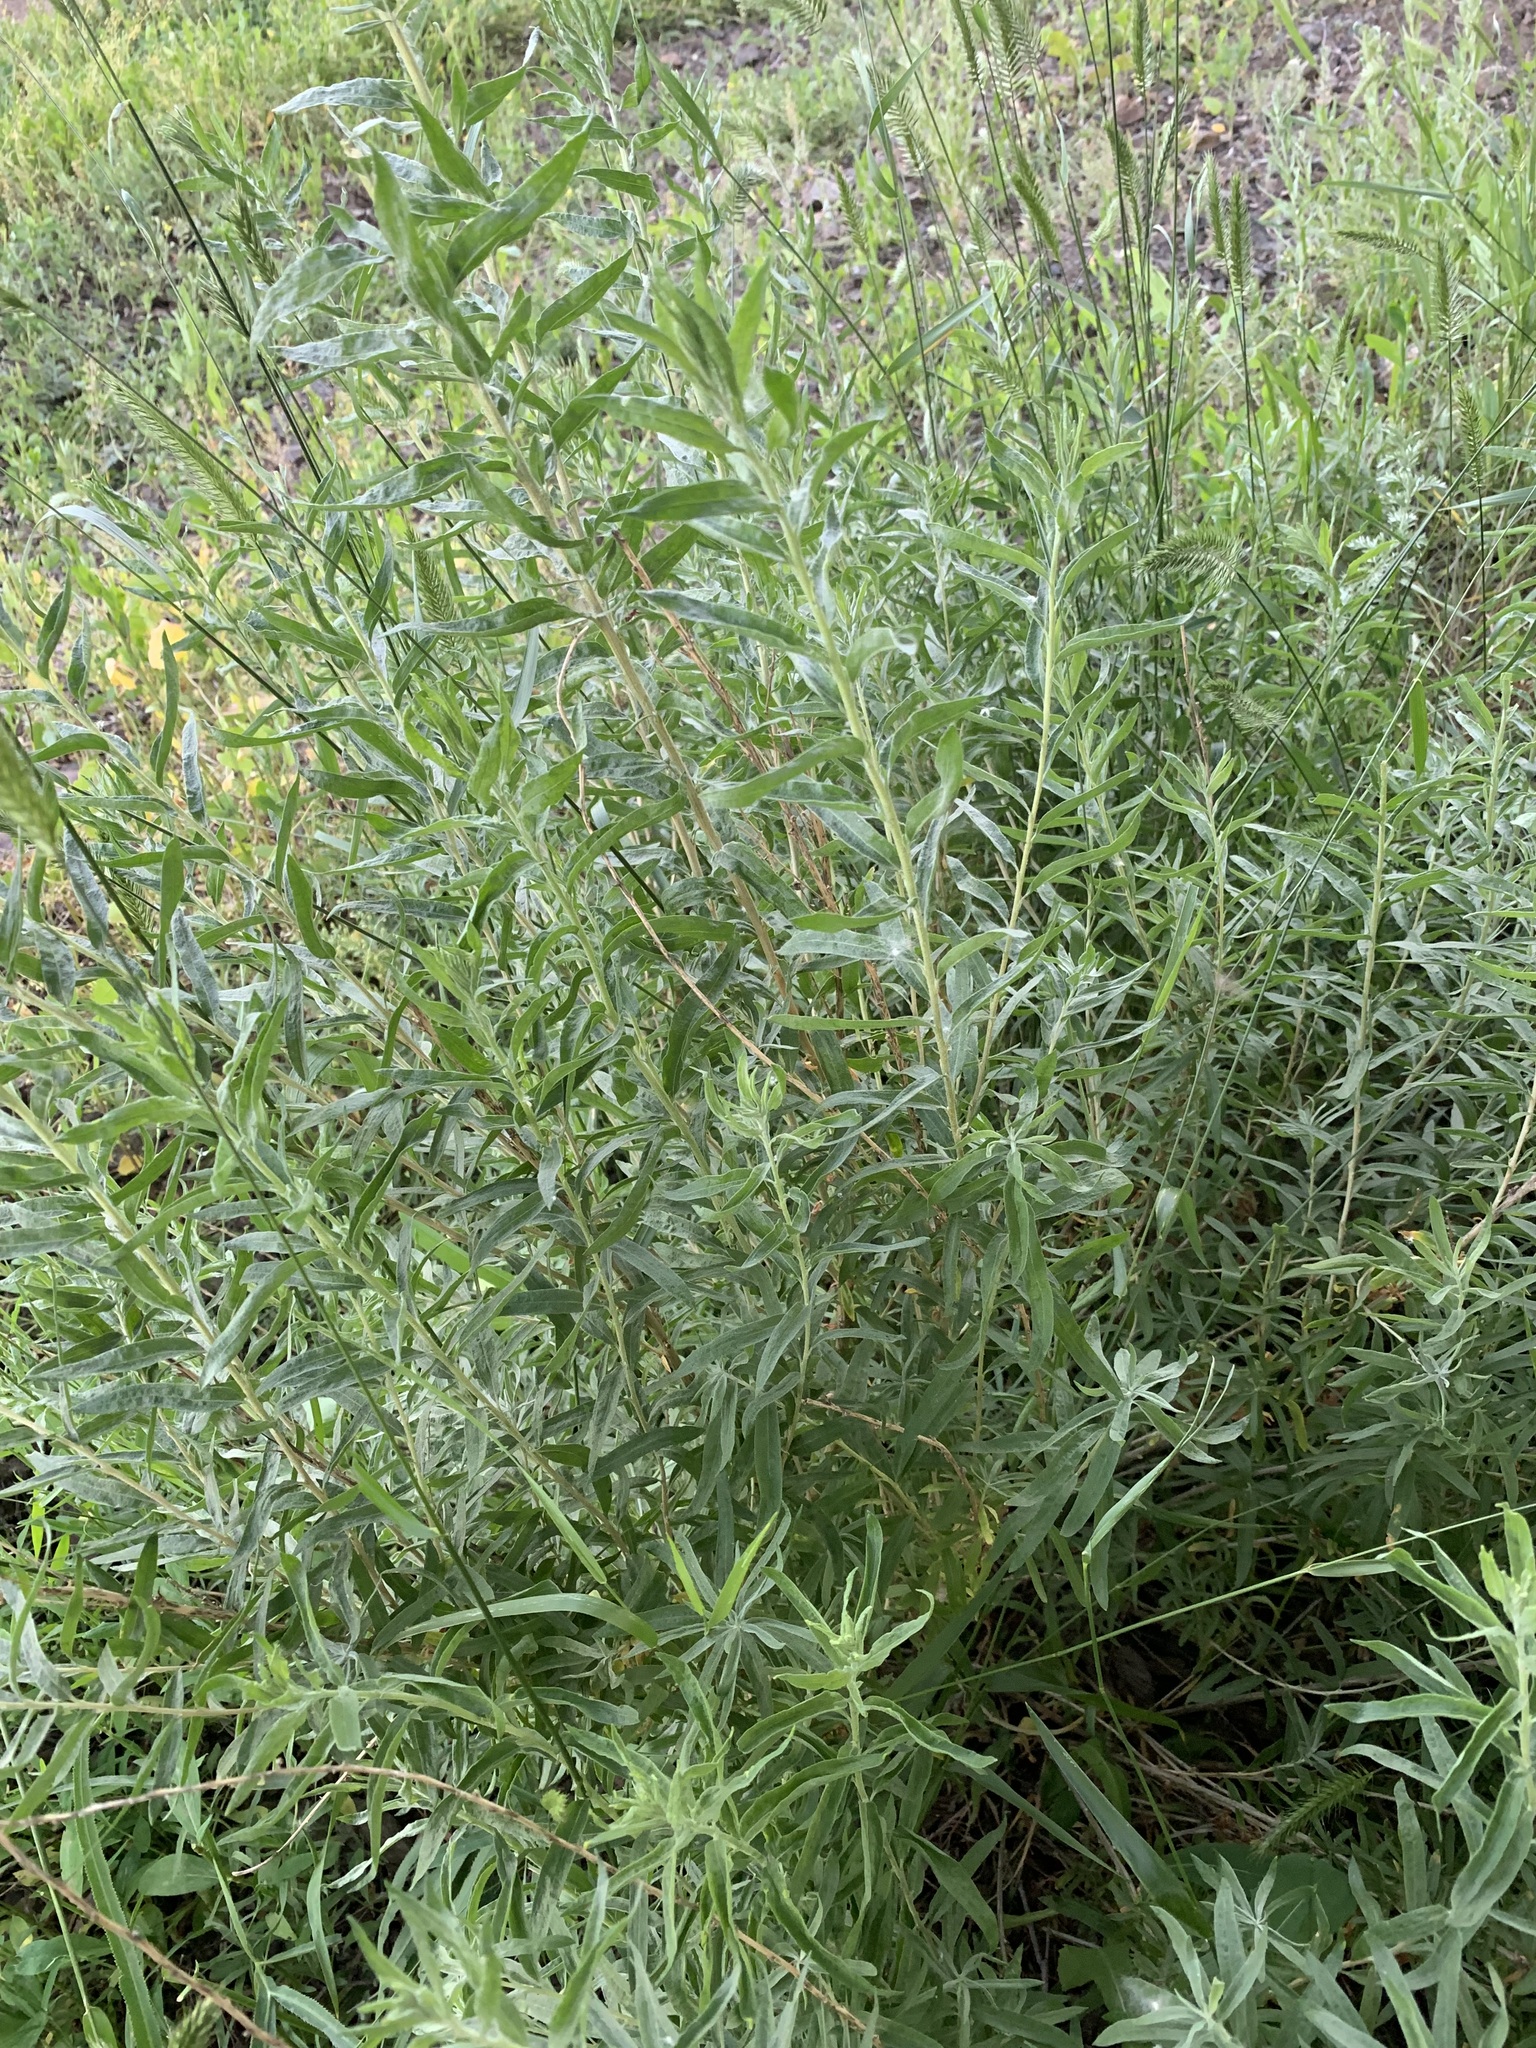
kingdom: Plantae
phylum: Tracheophyta
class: Magnoliopsida
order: Caryophyllales
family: Amaranthaceae
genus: Krascheninnikovia
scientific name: Krascheninnikovia ceratoides
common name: Pamirian winterfat
